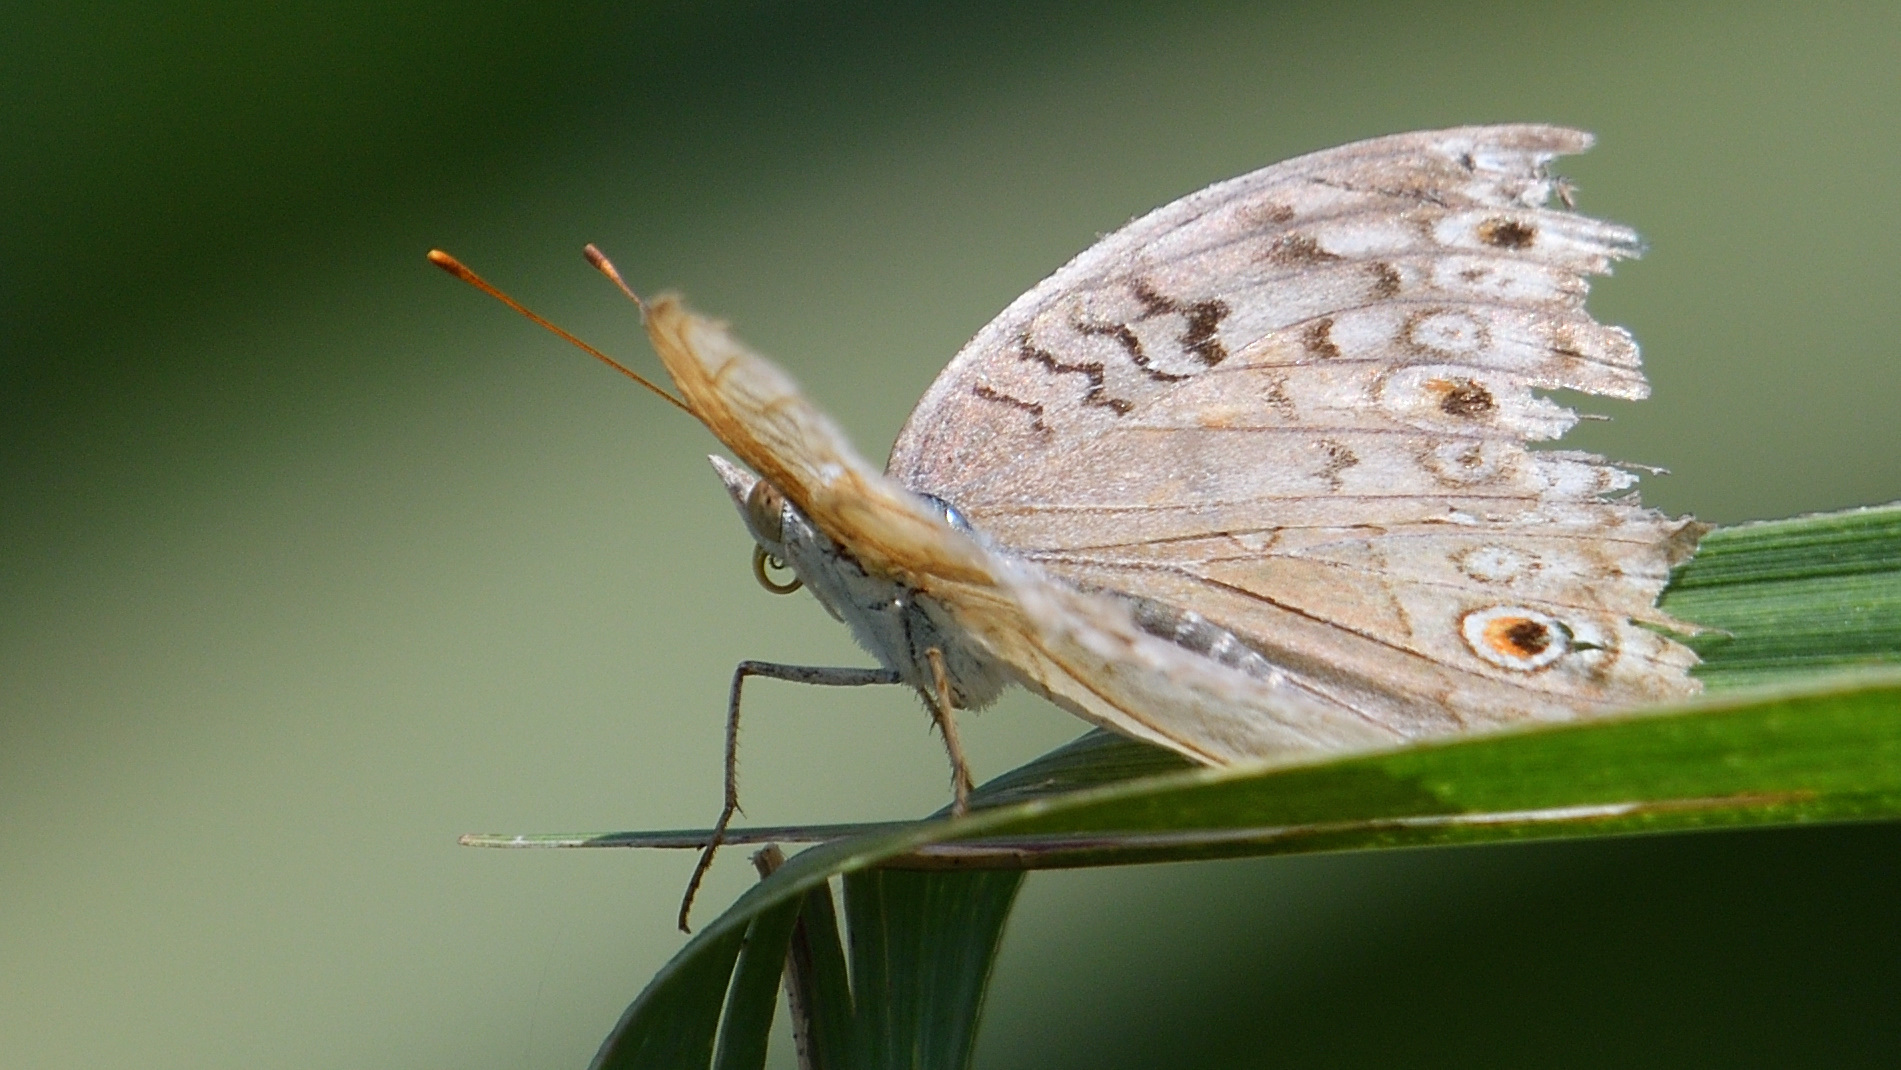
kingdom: Animalia
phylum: Arthropoda
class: Insecta
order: Lepidoptera
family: Nymphalidae
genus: Junonia
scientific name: Junonia atlites
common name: Grey pansy
